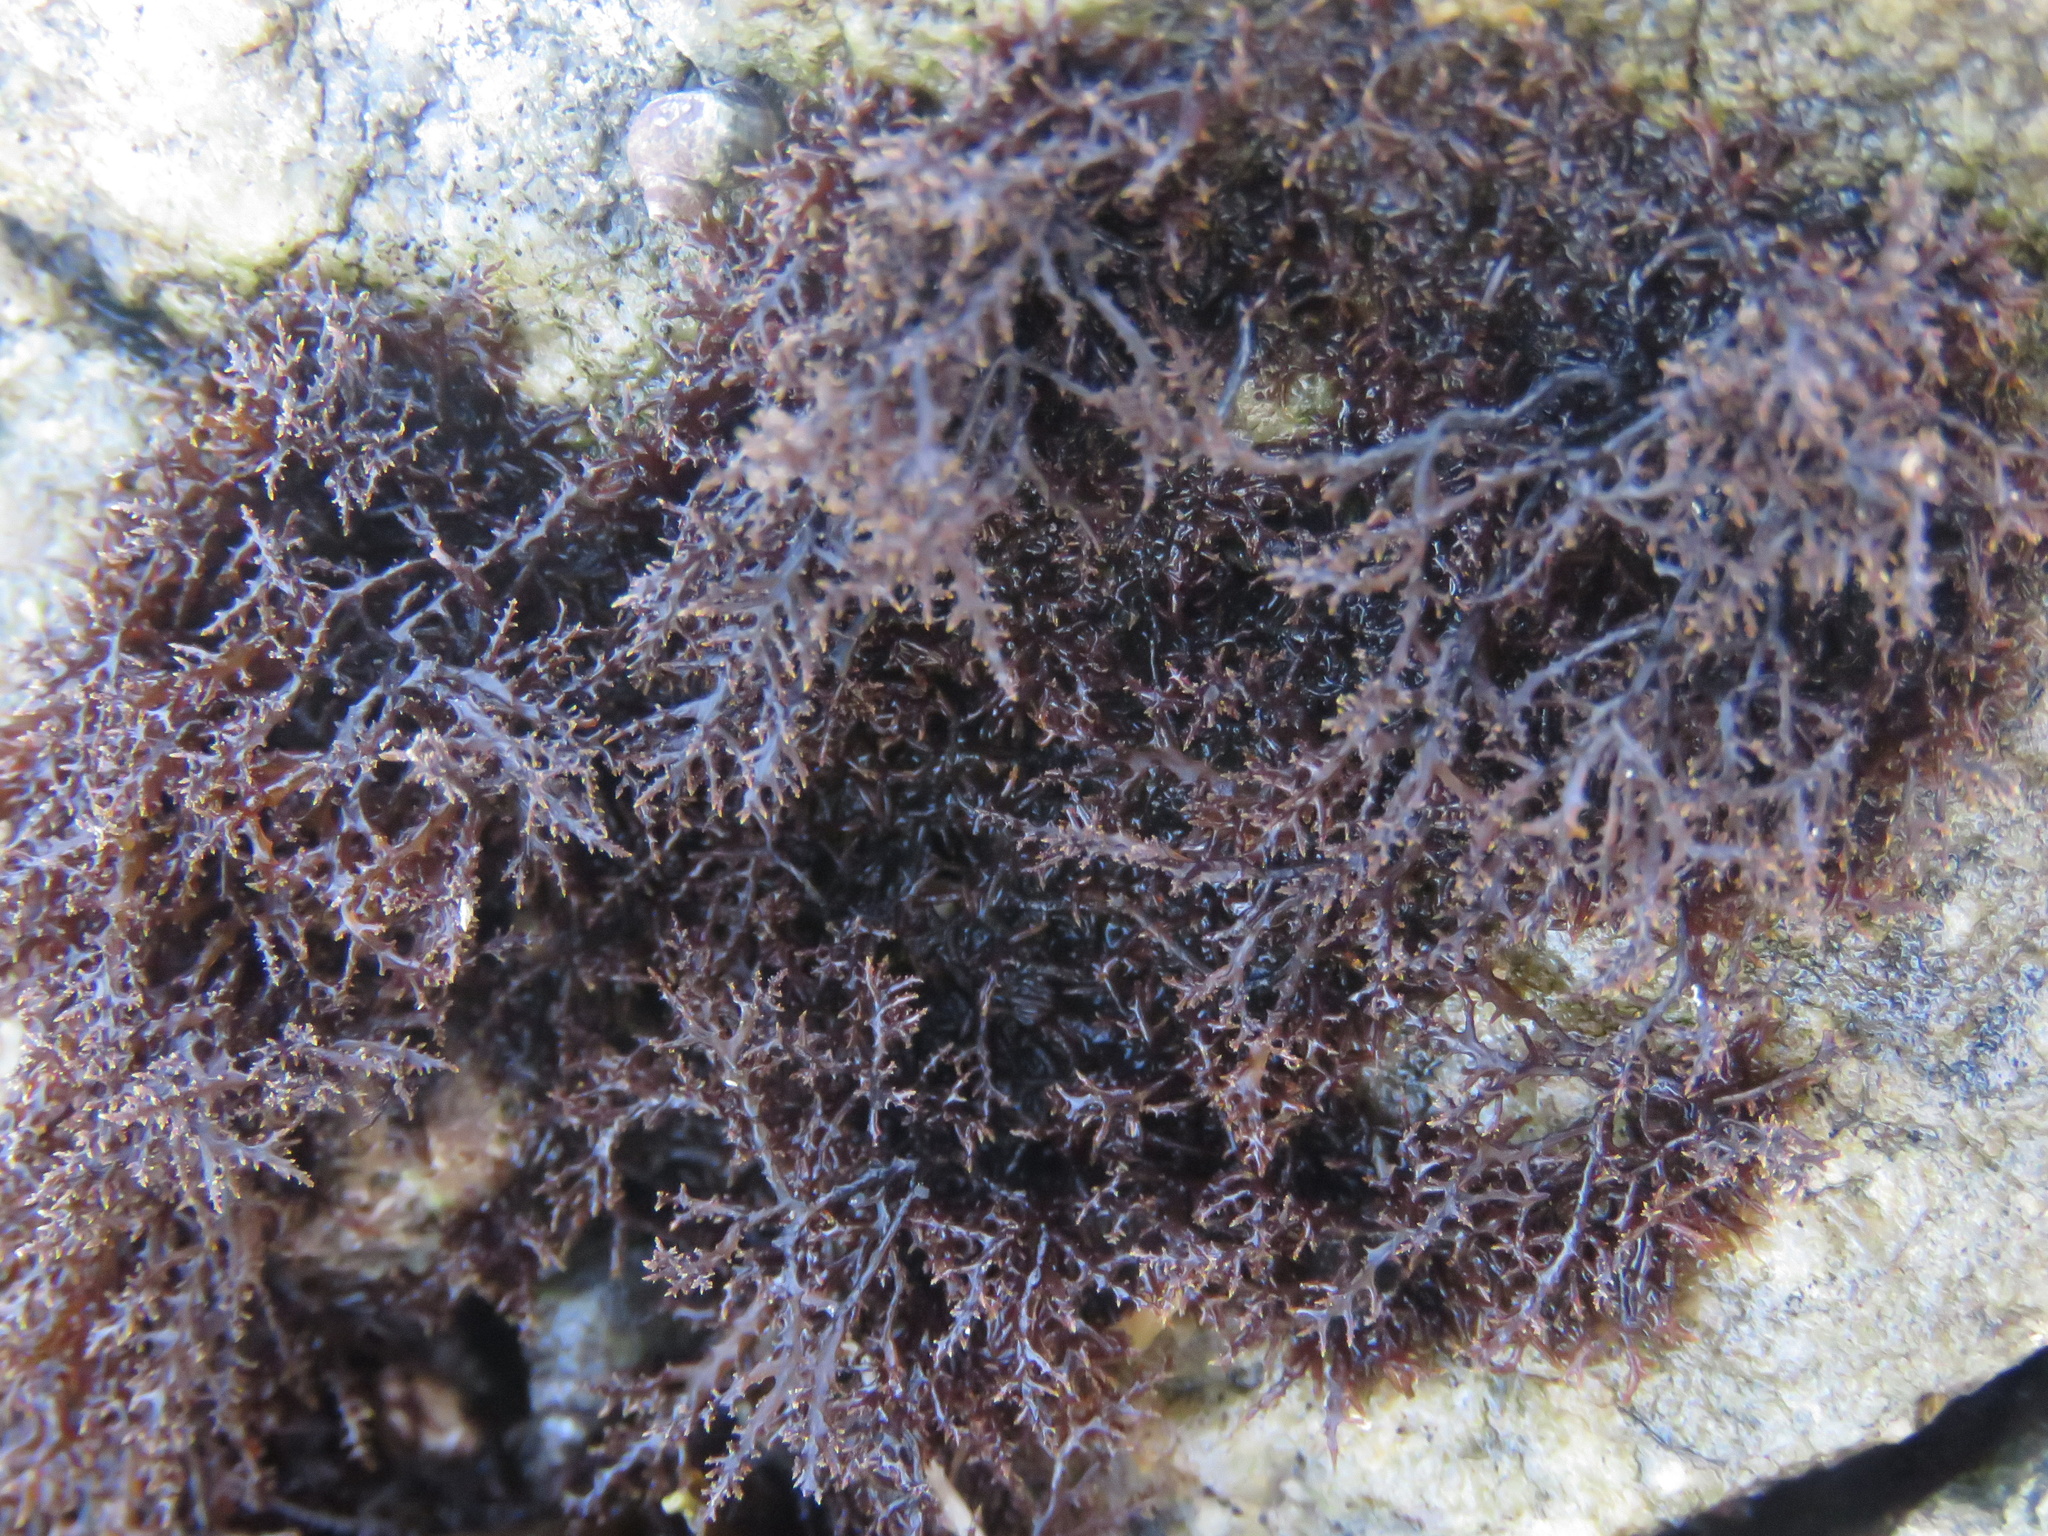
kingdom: Plantae
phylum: Rhodophyta
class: Florideophyceae
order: Gigartinales
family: Endocladiaceae
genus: Endocladia
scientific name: Endocladia muricata
